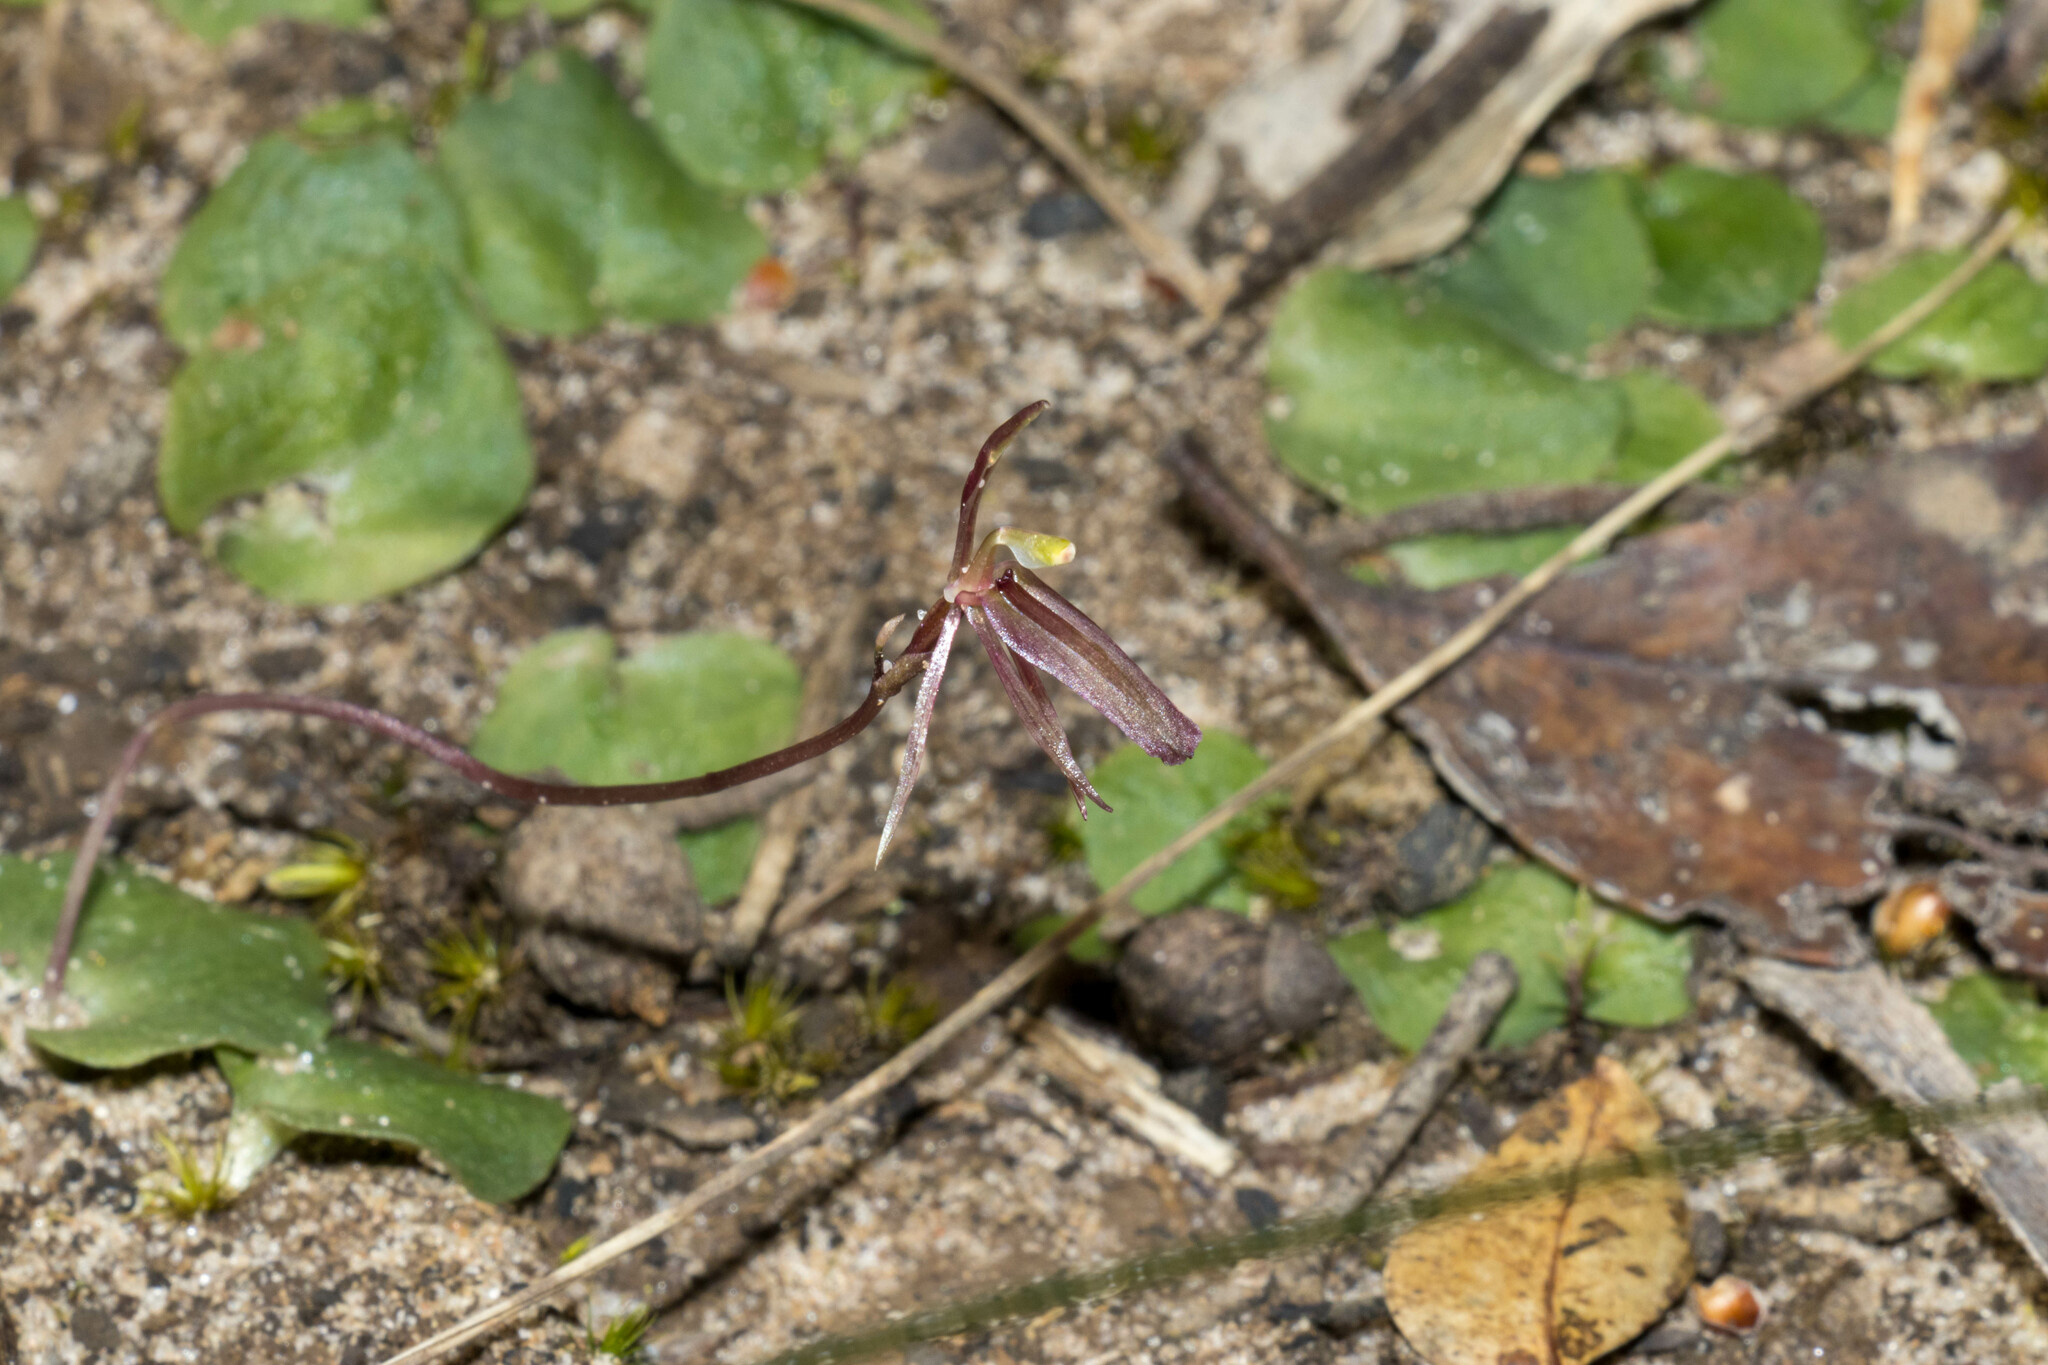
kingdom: Plantae
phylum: Tracheophyta
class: Liliopsida
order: Asparagales
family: Orchidaceae
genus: Cyrtostylis
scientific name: Cyrtostylis reniformis
